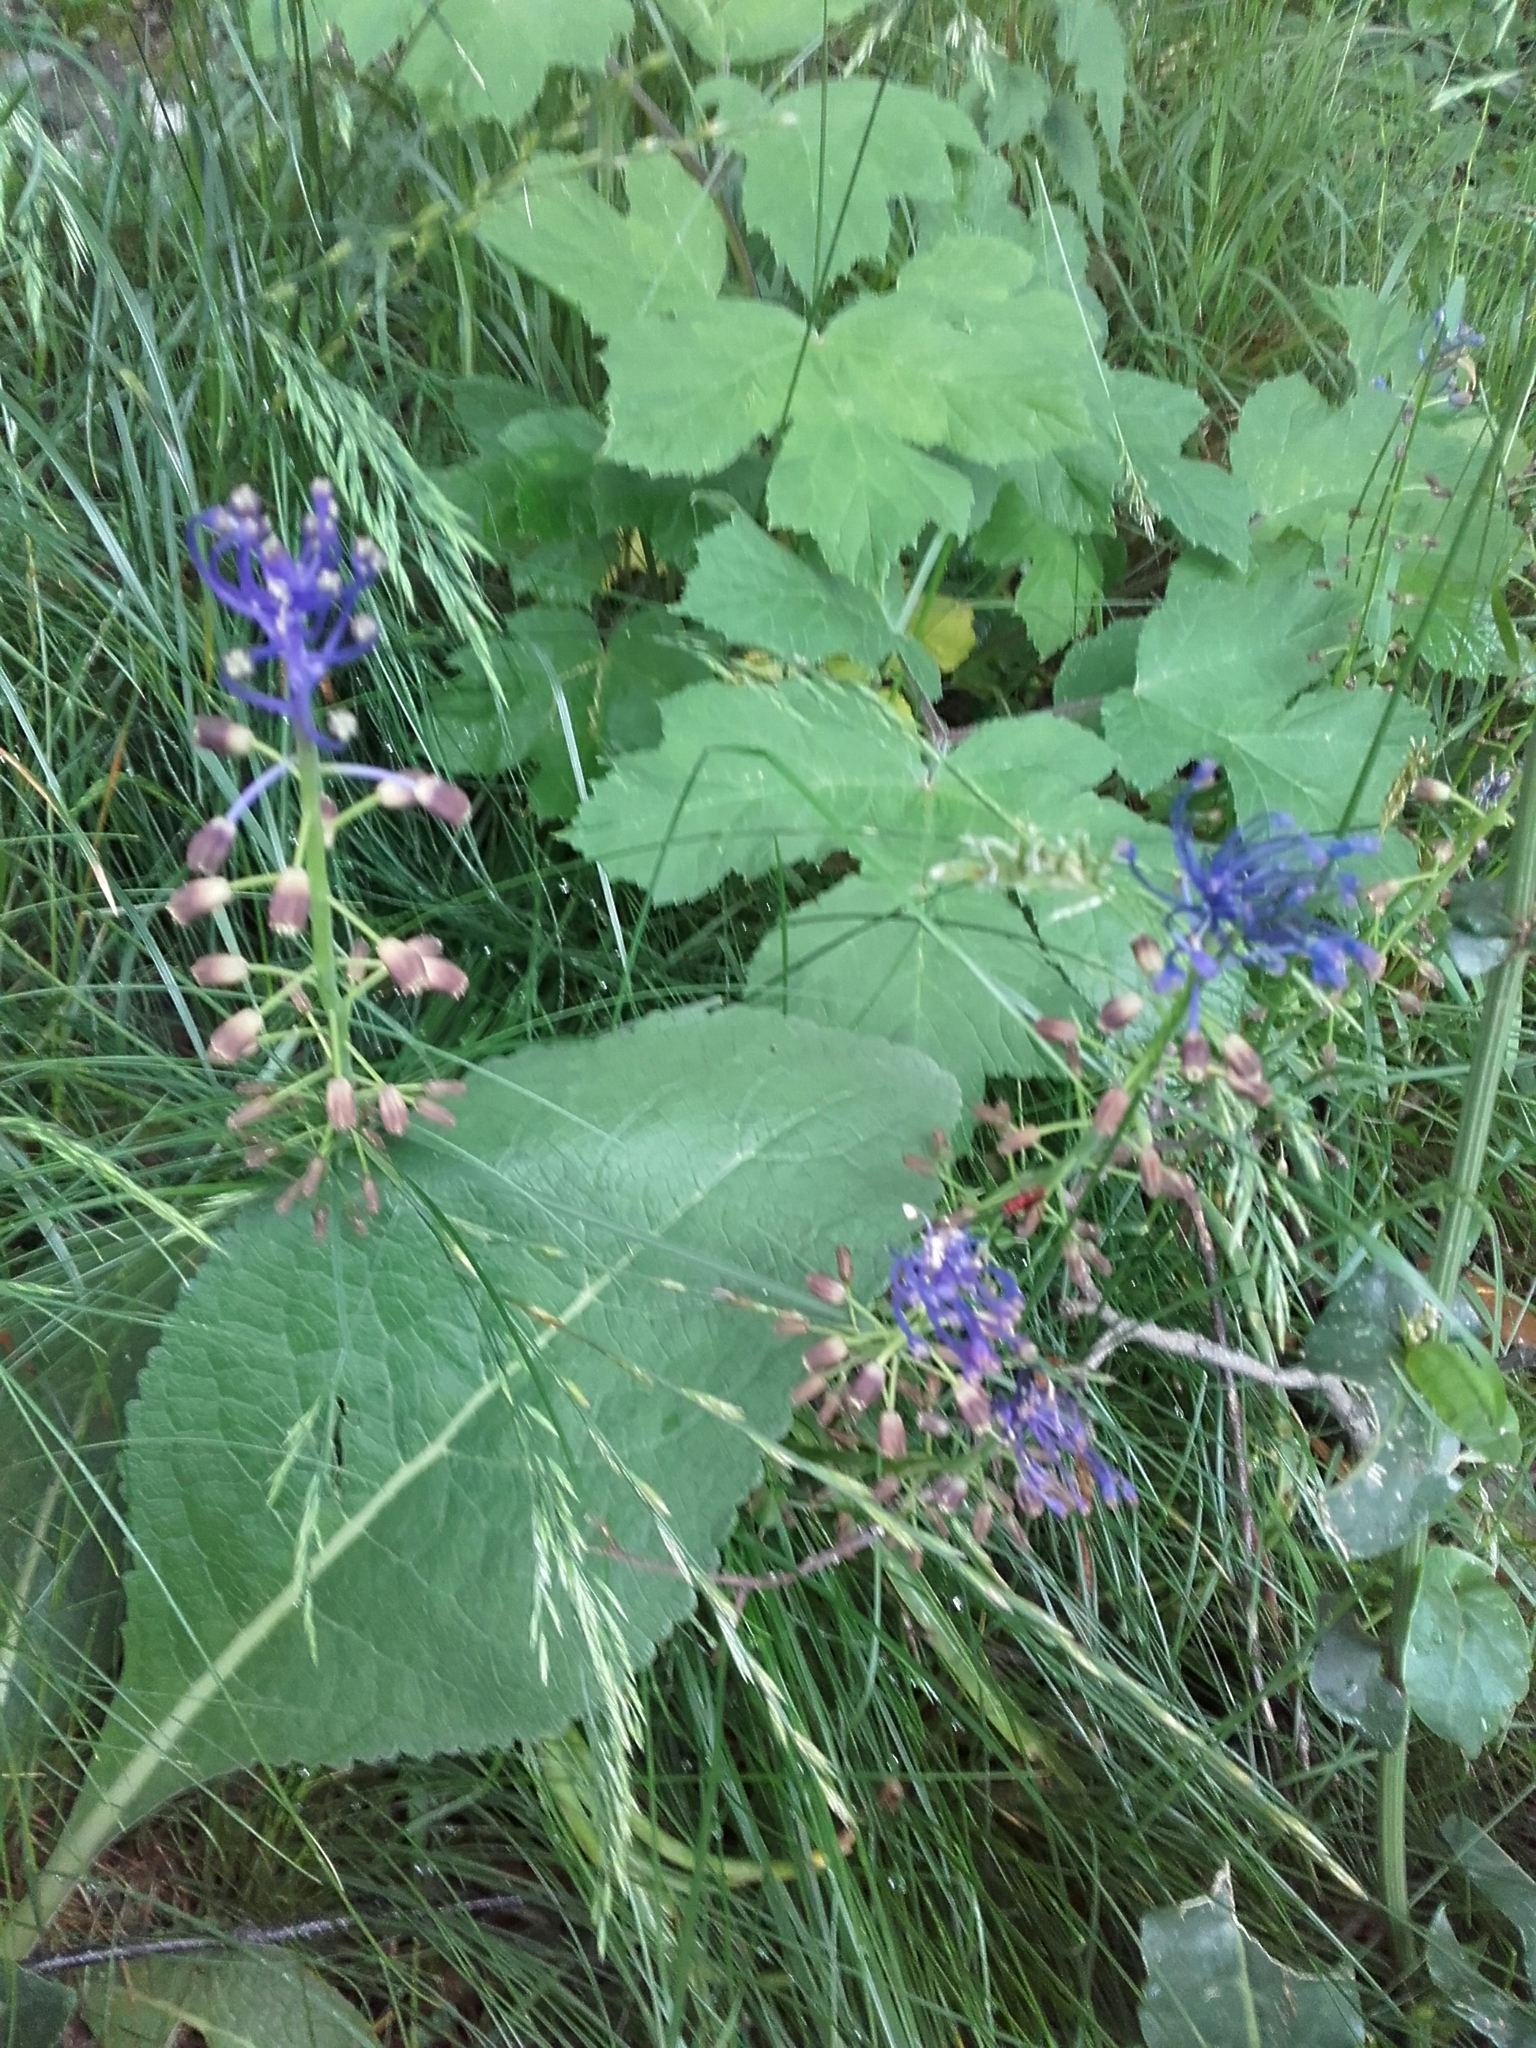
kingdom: Plantae
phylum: Tracheophyta
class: Liliopsida
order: Asparagales
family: Asparagaceae
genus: Muscari
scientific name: Muscari comosum
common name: Tassel hyacinth
